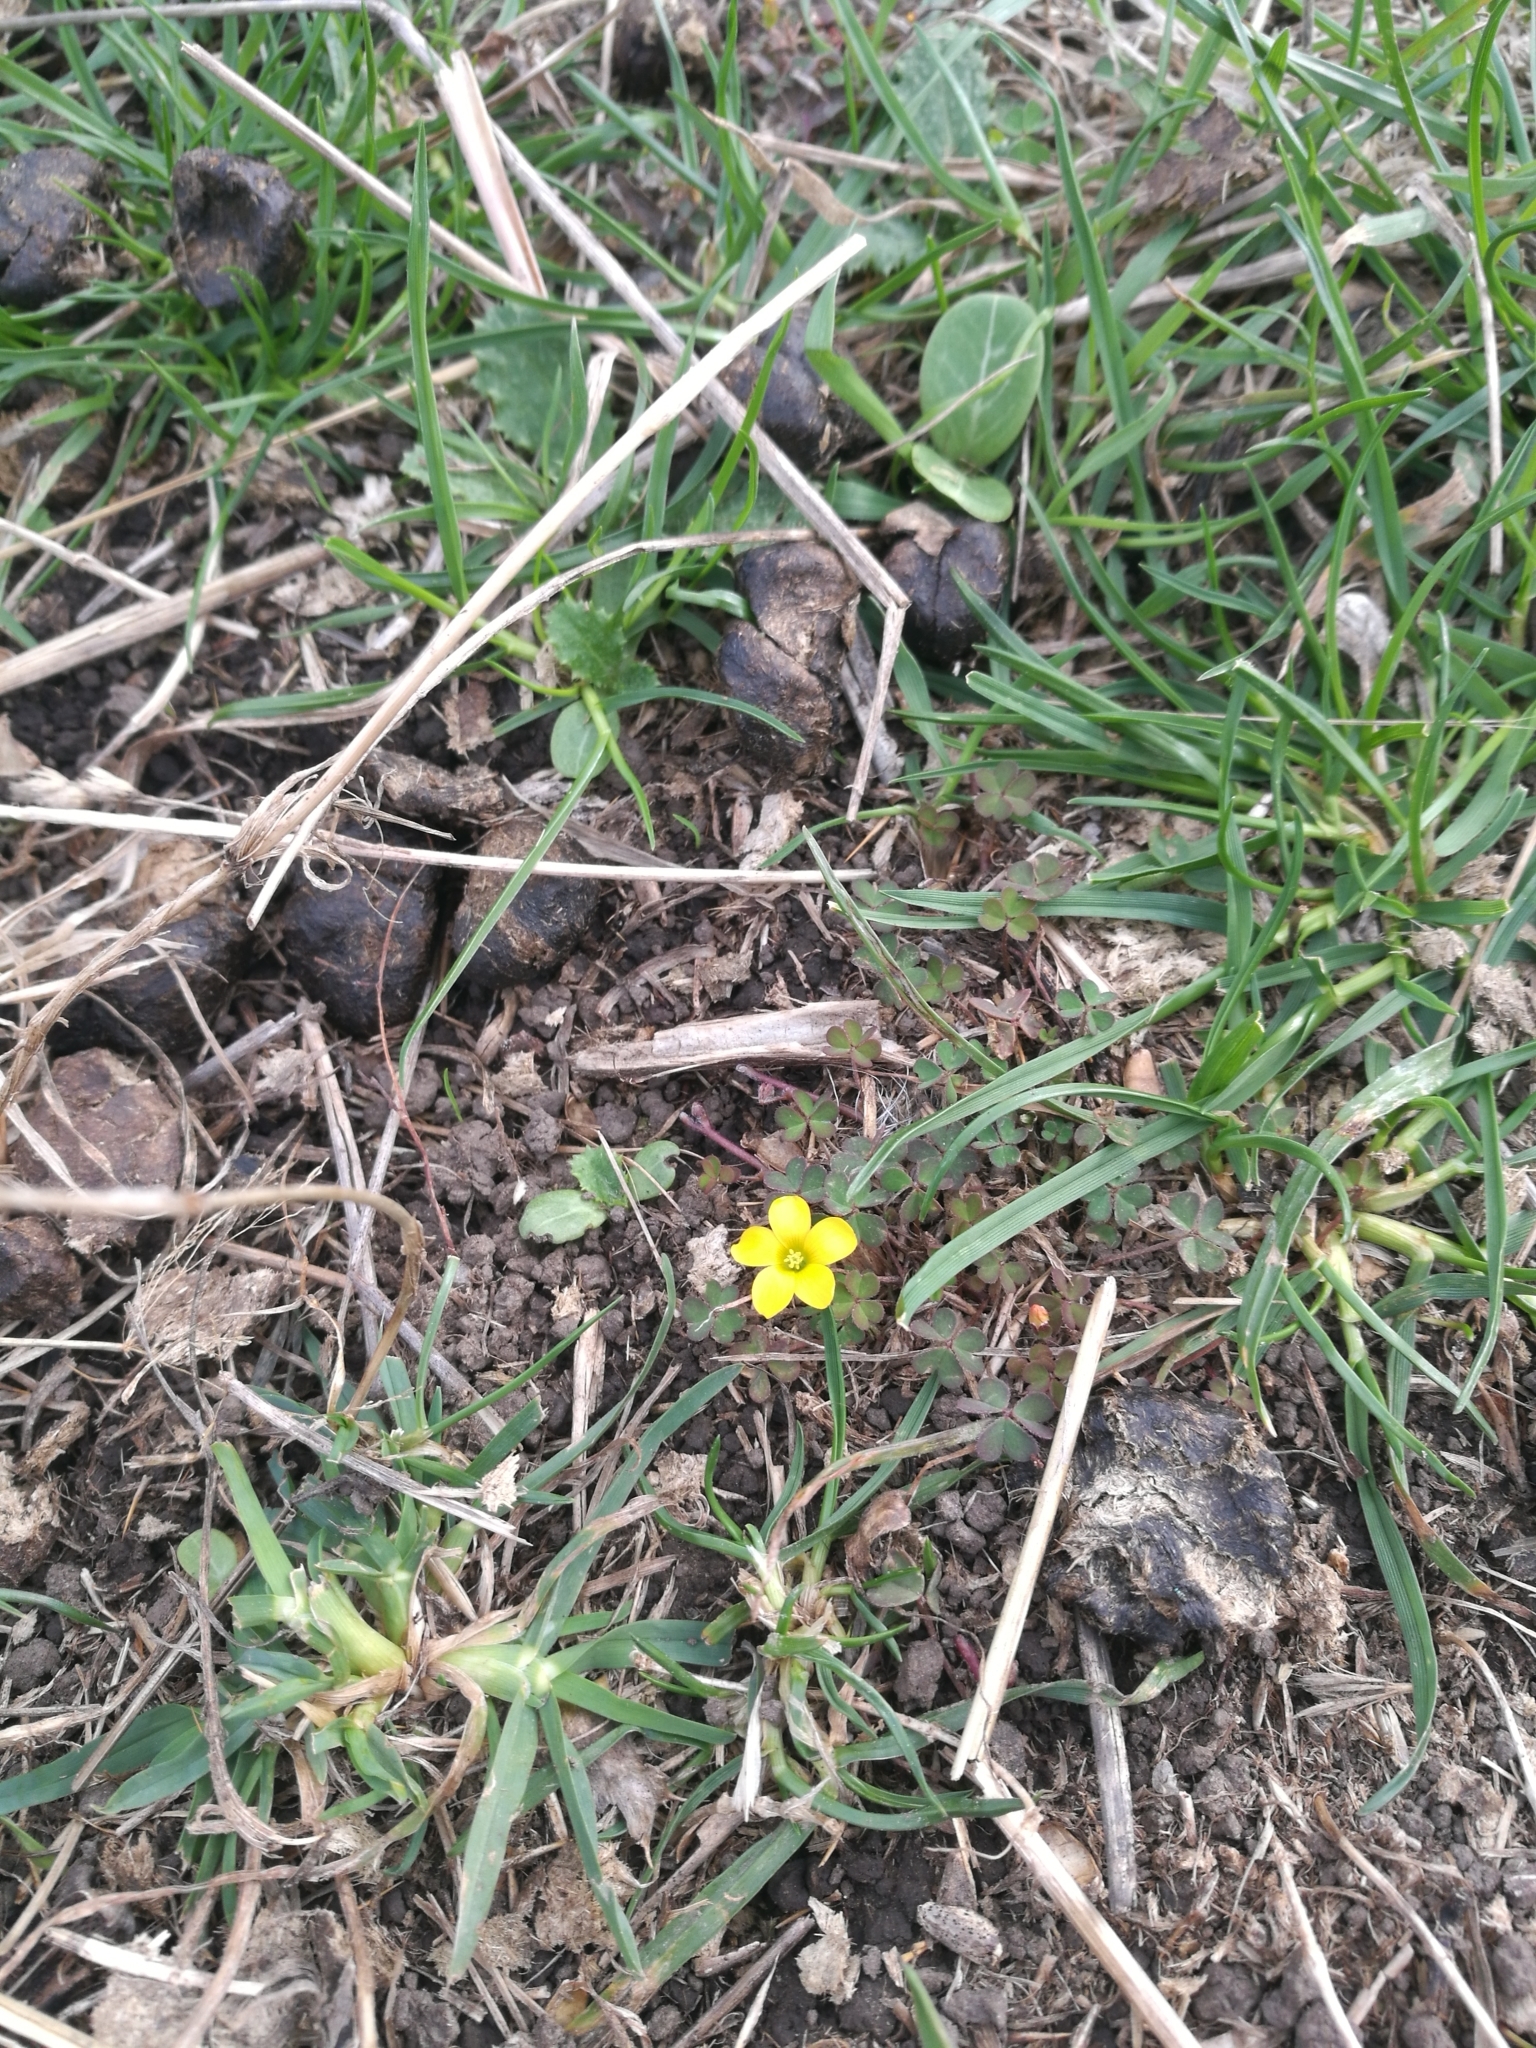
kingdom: Plantae
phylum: Tracheophyta
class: Magnoliopsida
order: Oxalidales
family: Oxalidaceae
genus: Oxalis
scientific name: Oxalis corniculata
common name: Procumbent yellow-sorrel
